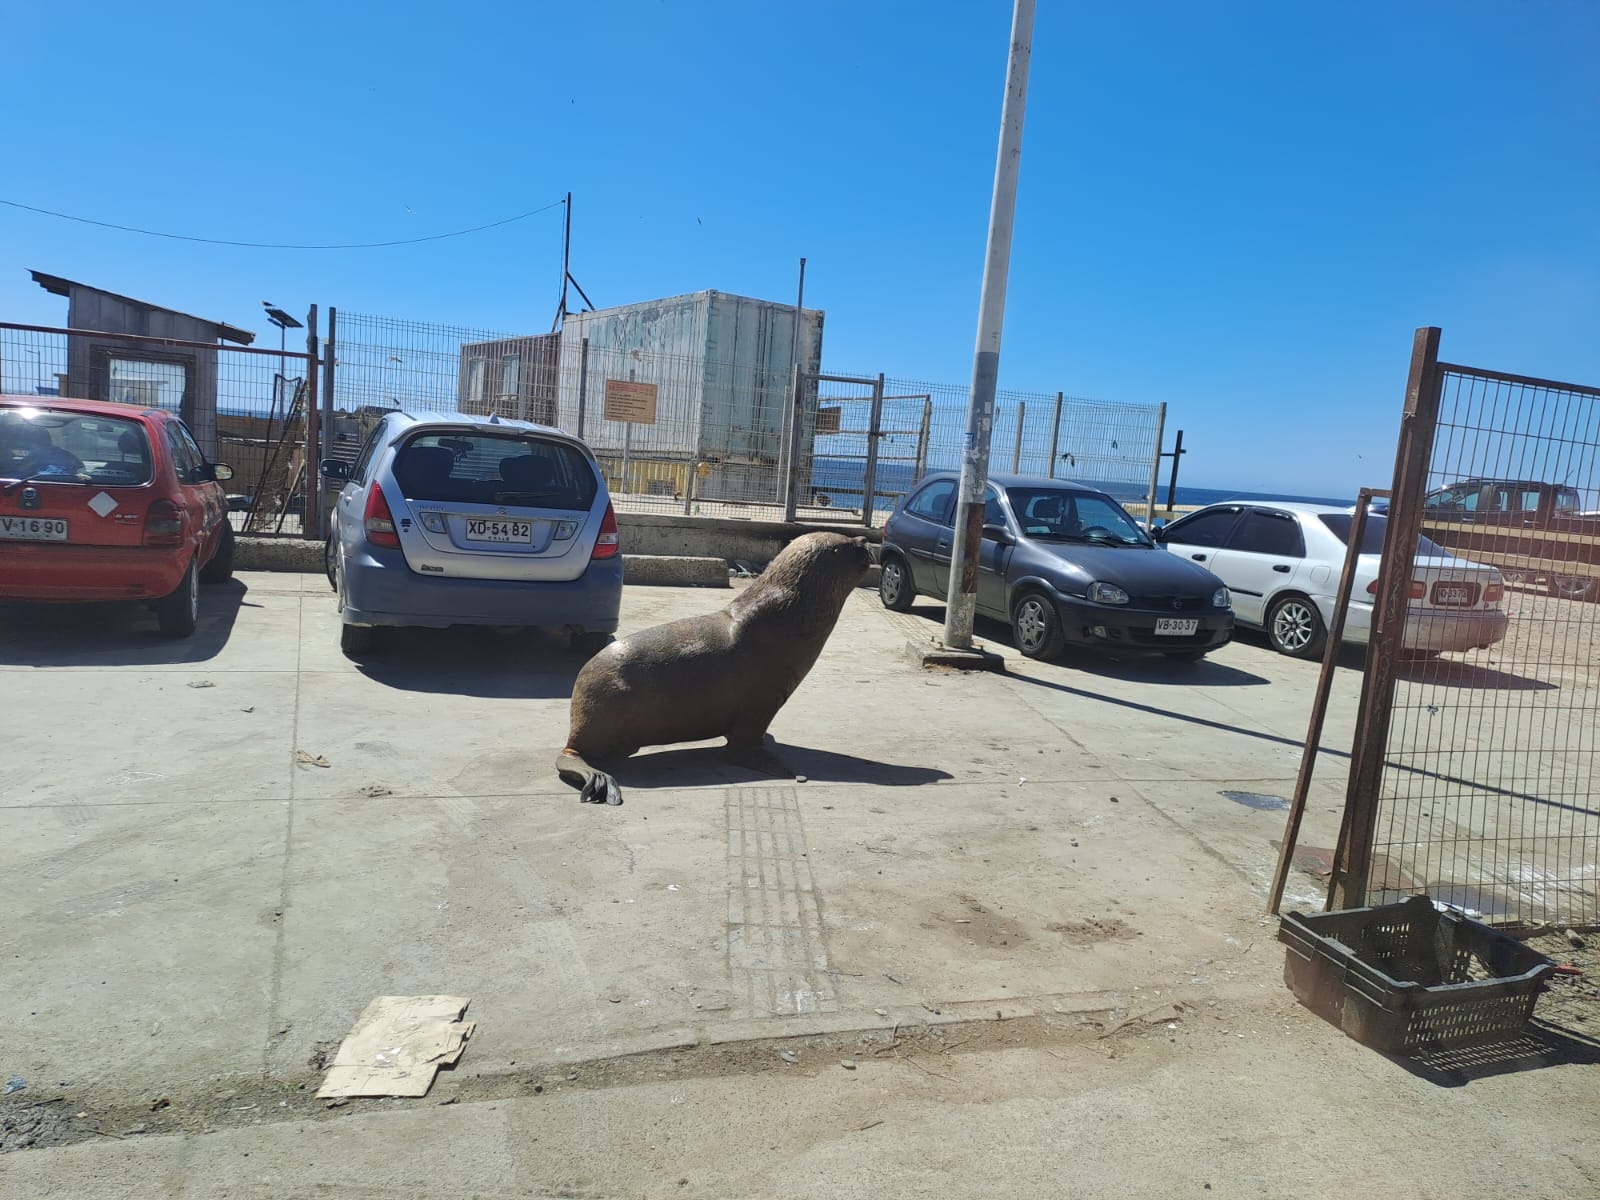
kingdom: Animalia
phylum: Chordata
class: Mammalia
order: Carnivora
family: Otariidae
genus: Otaria
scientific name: Otaria byronia
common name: South american sea lion
